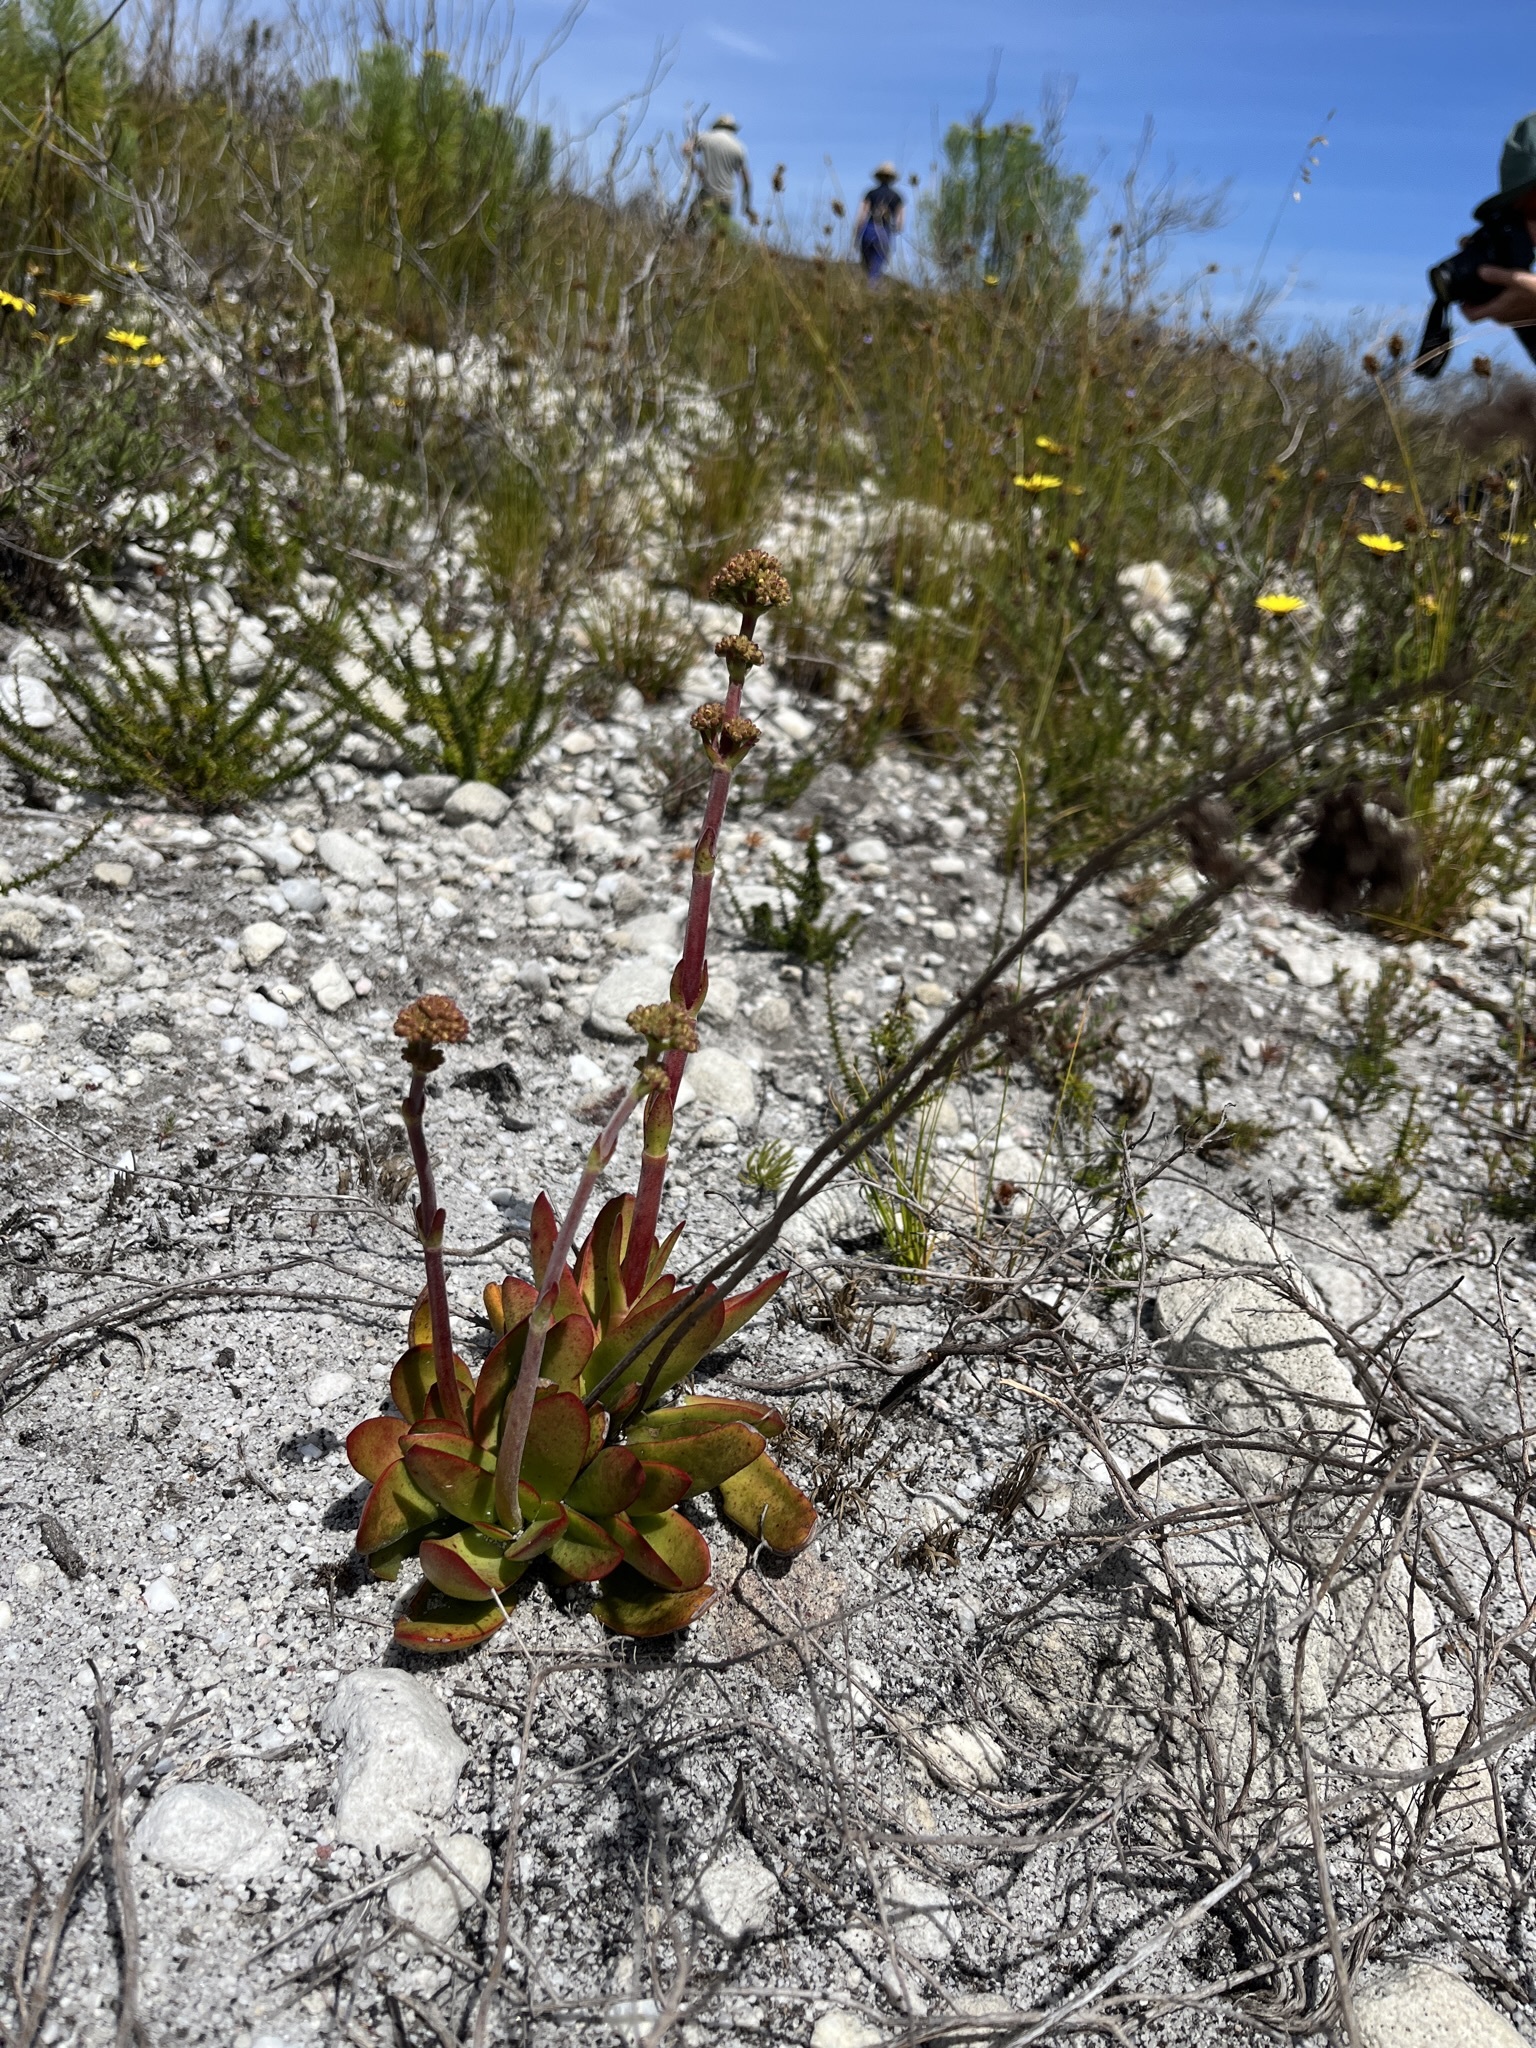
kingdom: Plantae
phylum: Tracheophyta
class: Magnoliopsida
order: Saxifragales
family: Crassulaceae
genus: Crassula
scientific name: Crassula nudicaulis
